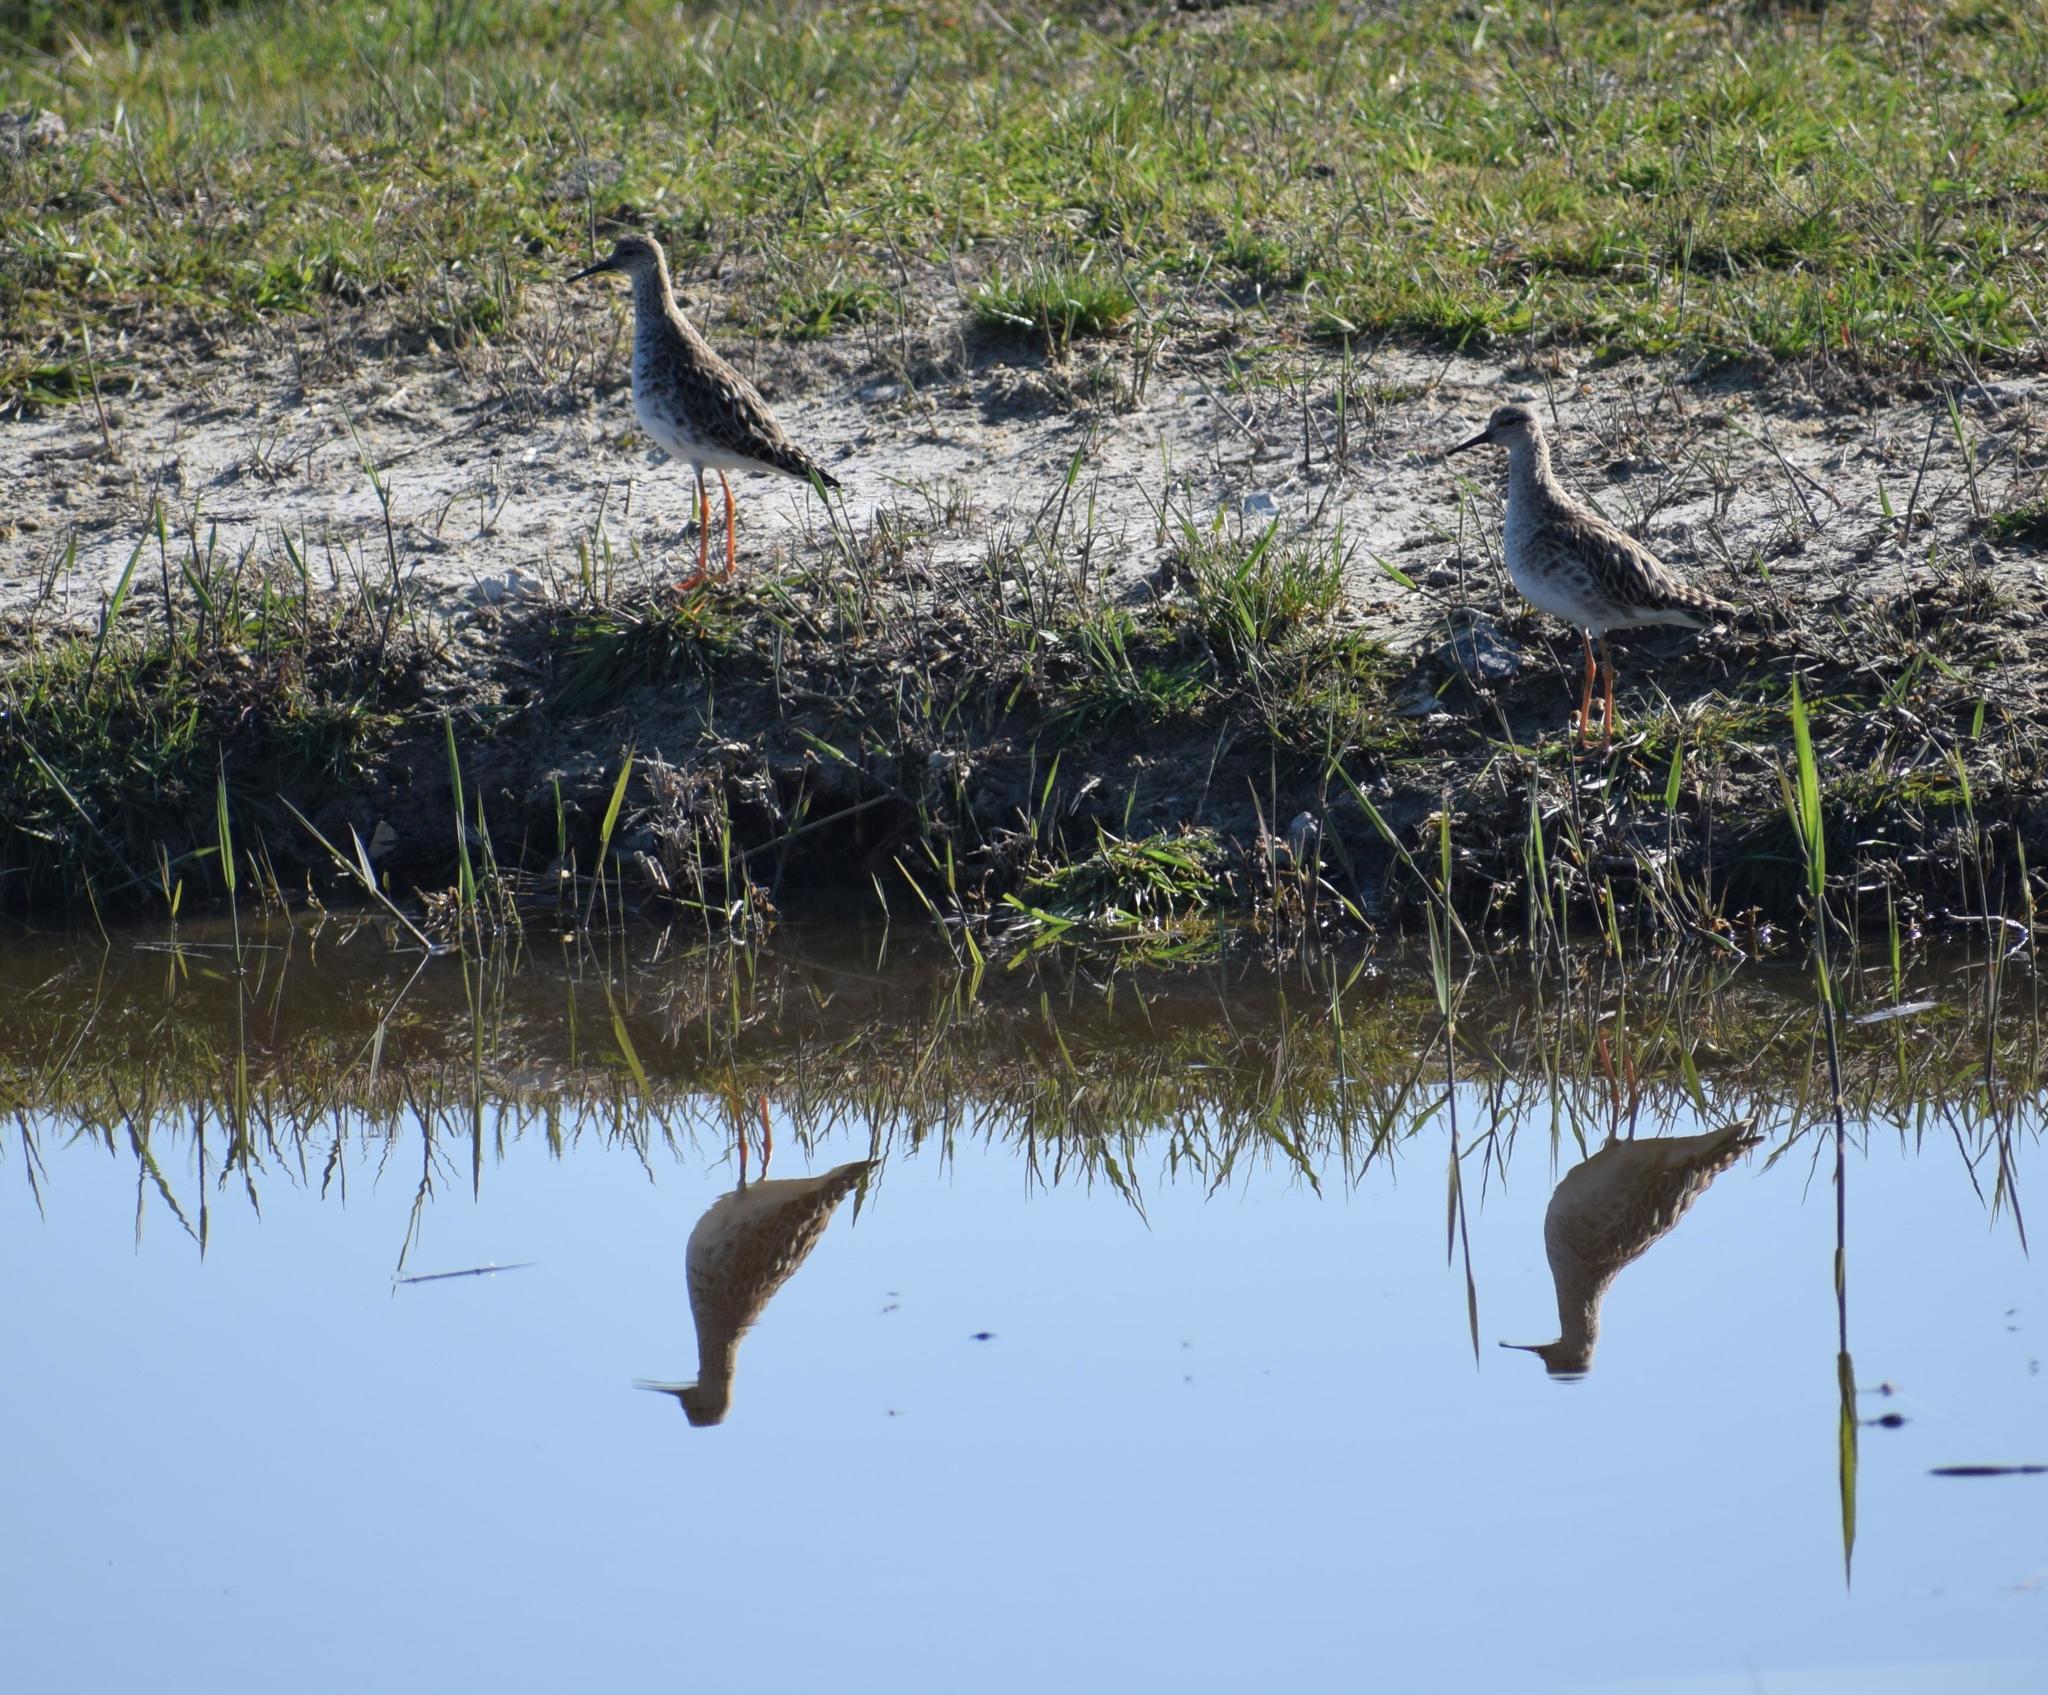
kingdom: Animalia
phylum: Chordata
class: Aves
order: Charadriiformes
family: Scolopacidae
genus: Calidris
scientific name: Calidris pugnax
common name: Ruff
